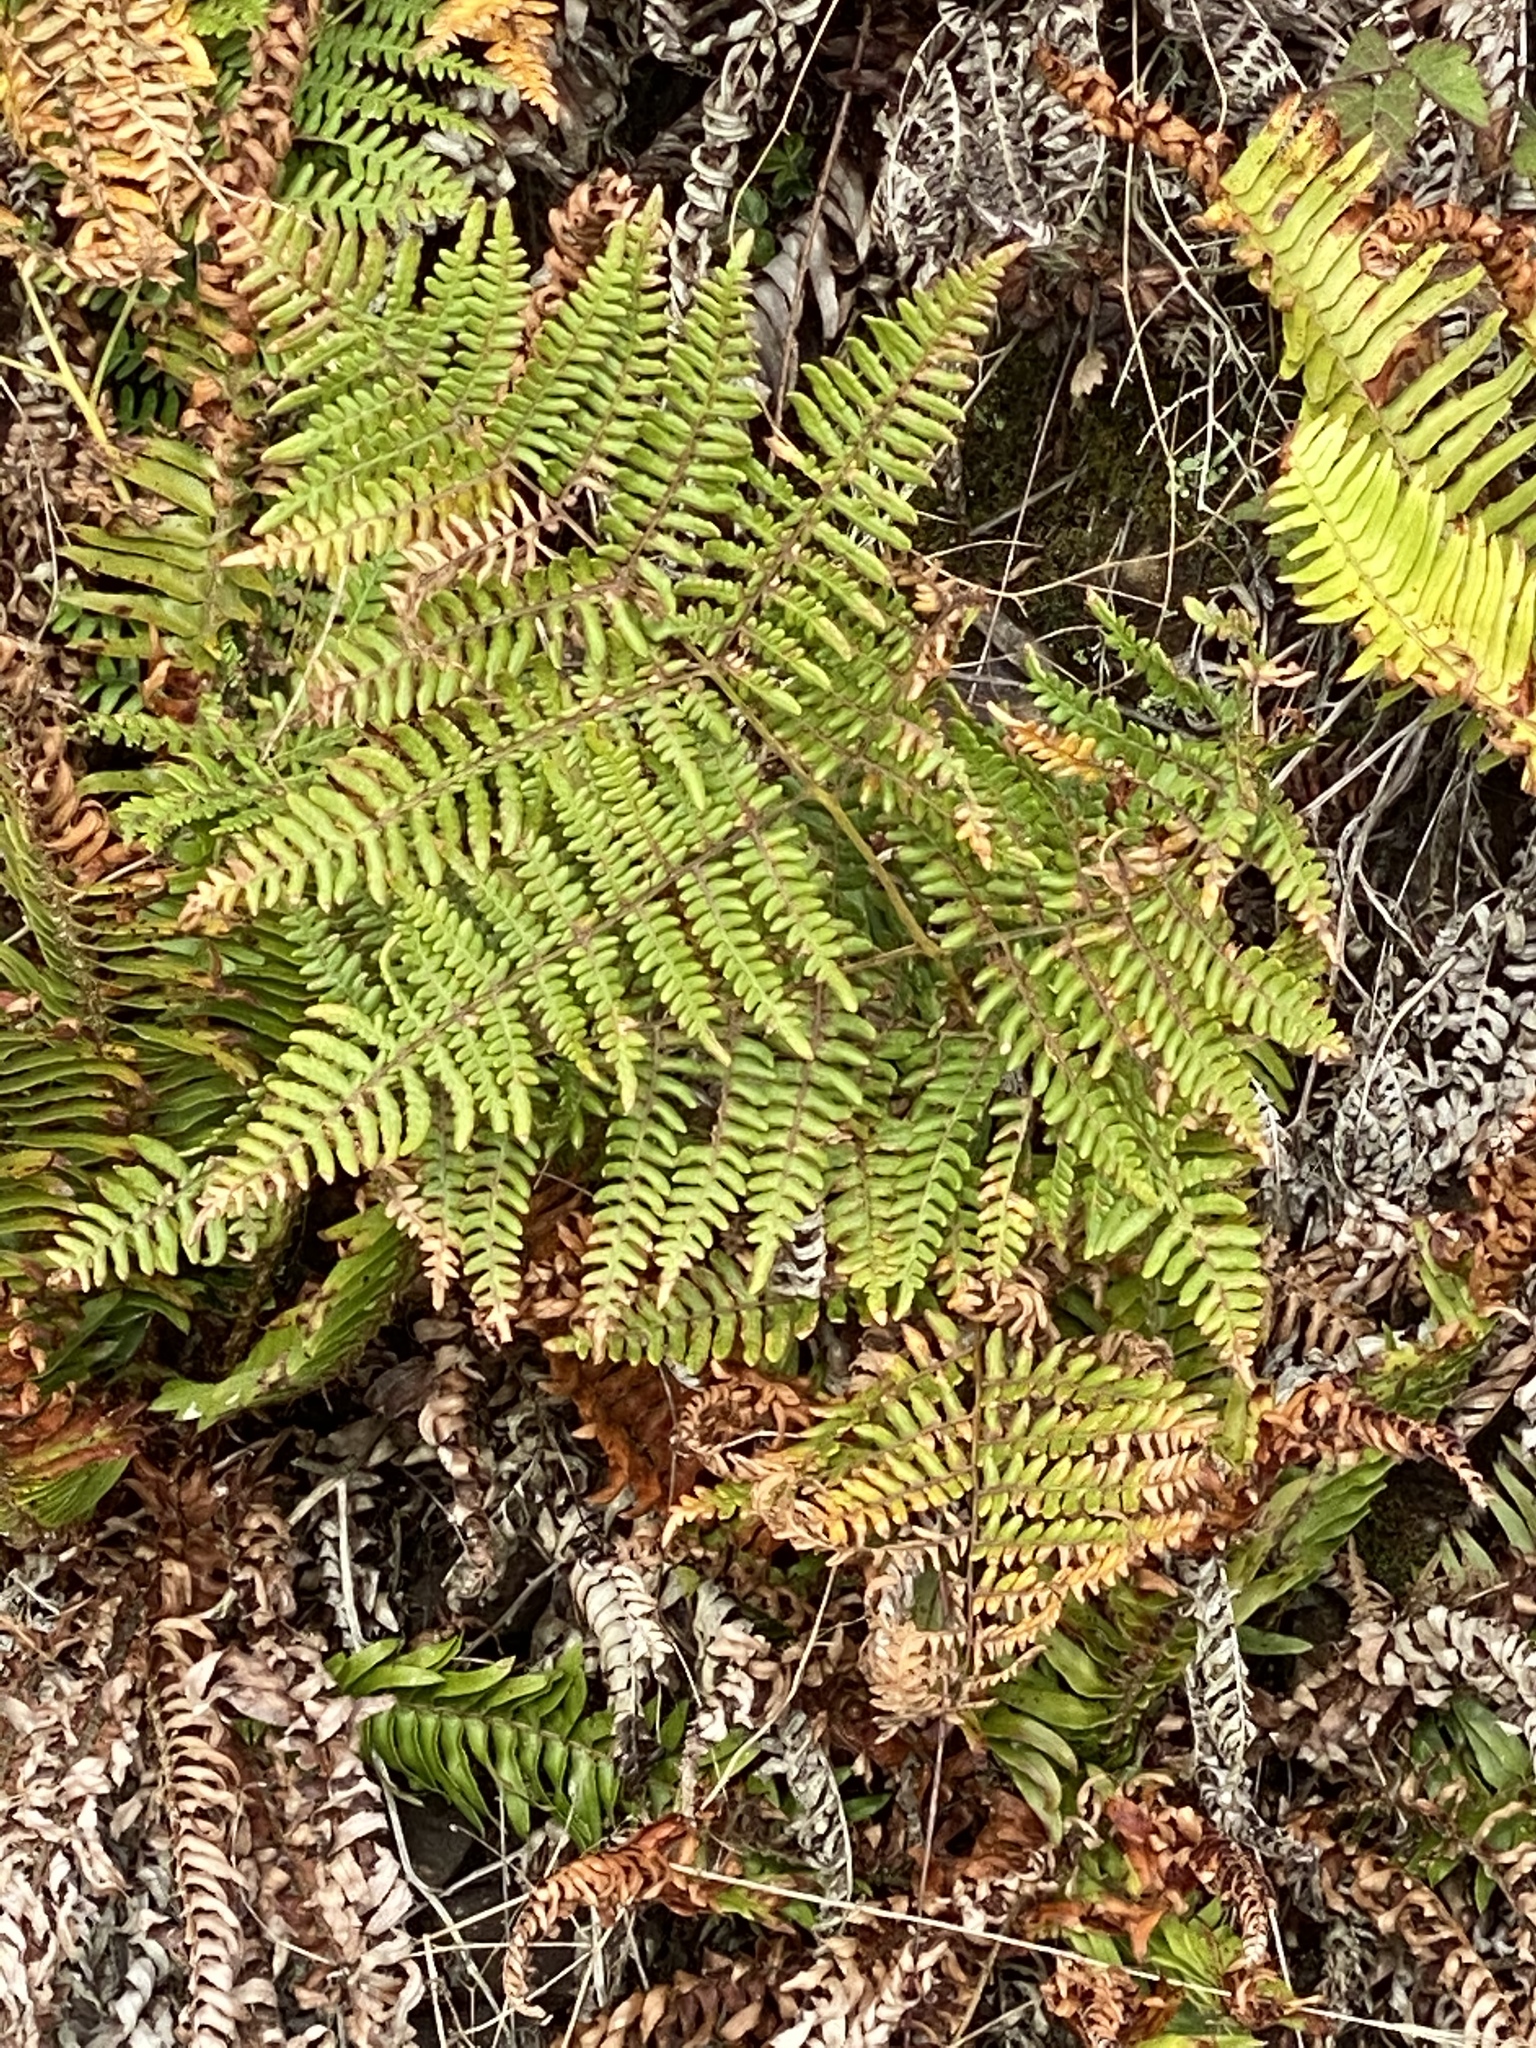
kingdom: Plantae
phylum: Tracheophyta
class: Polypodiopsida
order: Polypodiales
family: Dennstaedtiaceae
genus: Pteridium
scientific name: Pteridium aquilinum
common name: Bracken
